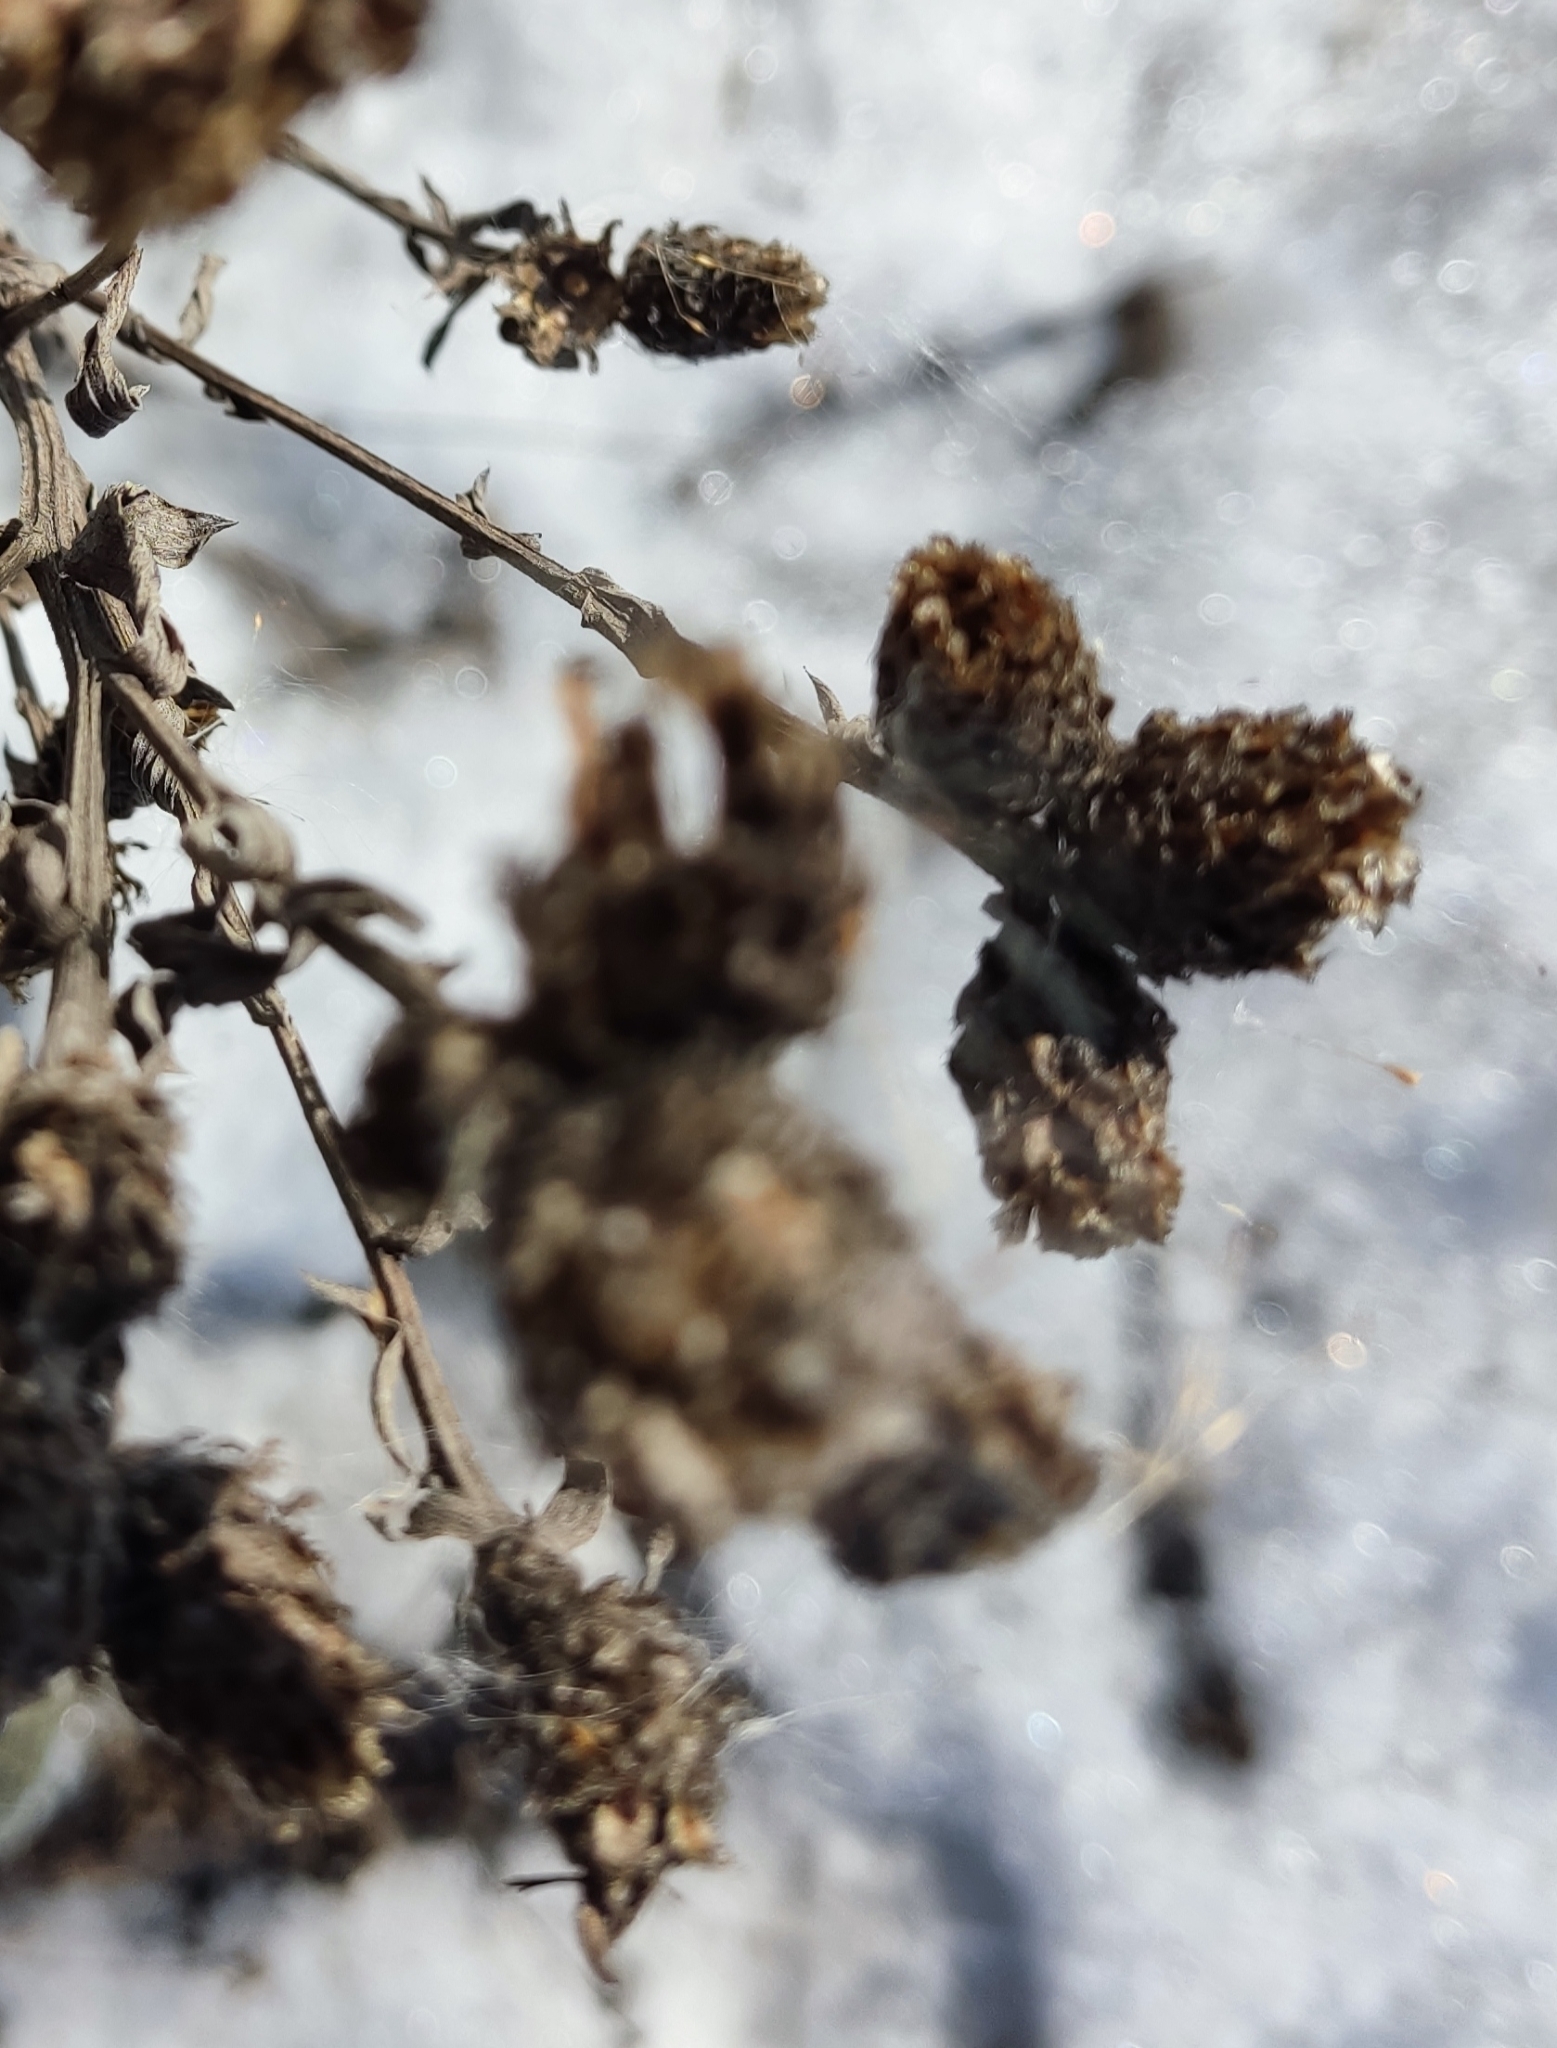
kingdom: Plantae
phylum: Tracheophyta
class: Magnoliopsida
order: Asterales
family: Asteraceae
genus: Centaurea
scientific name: Centaurea jacea
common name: Brown knapweed
